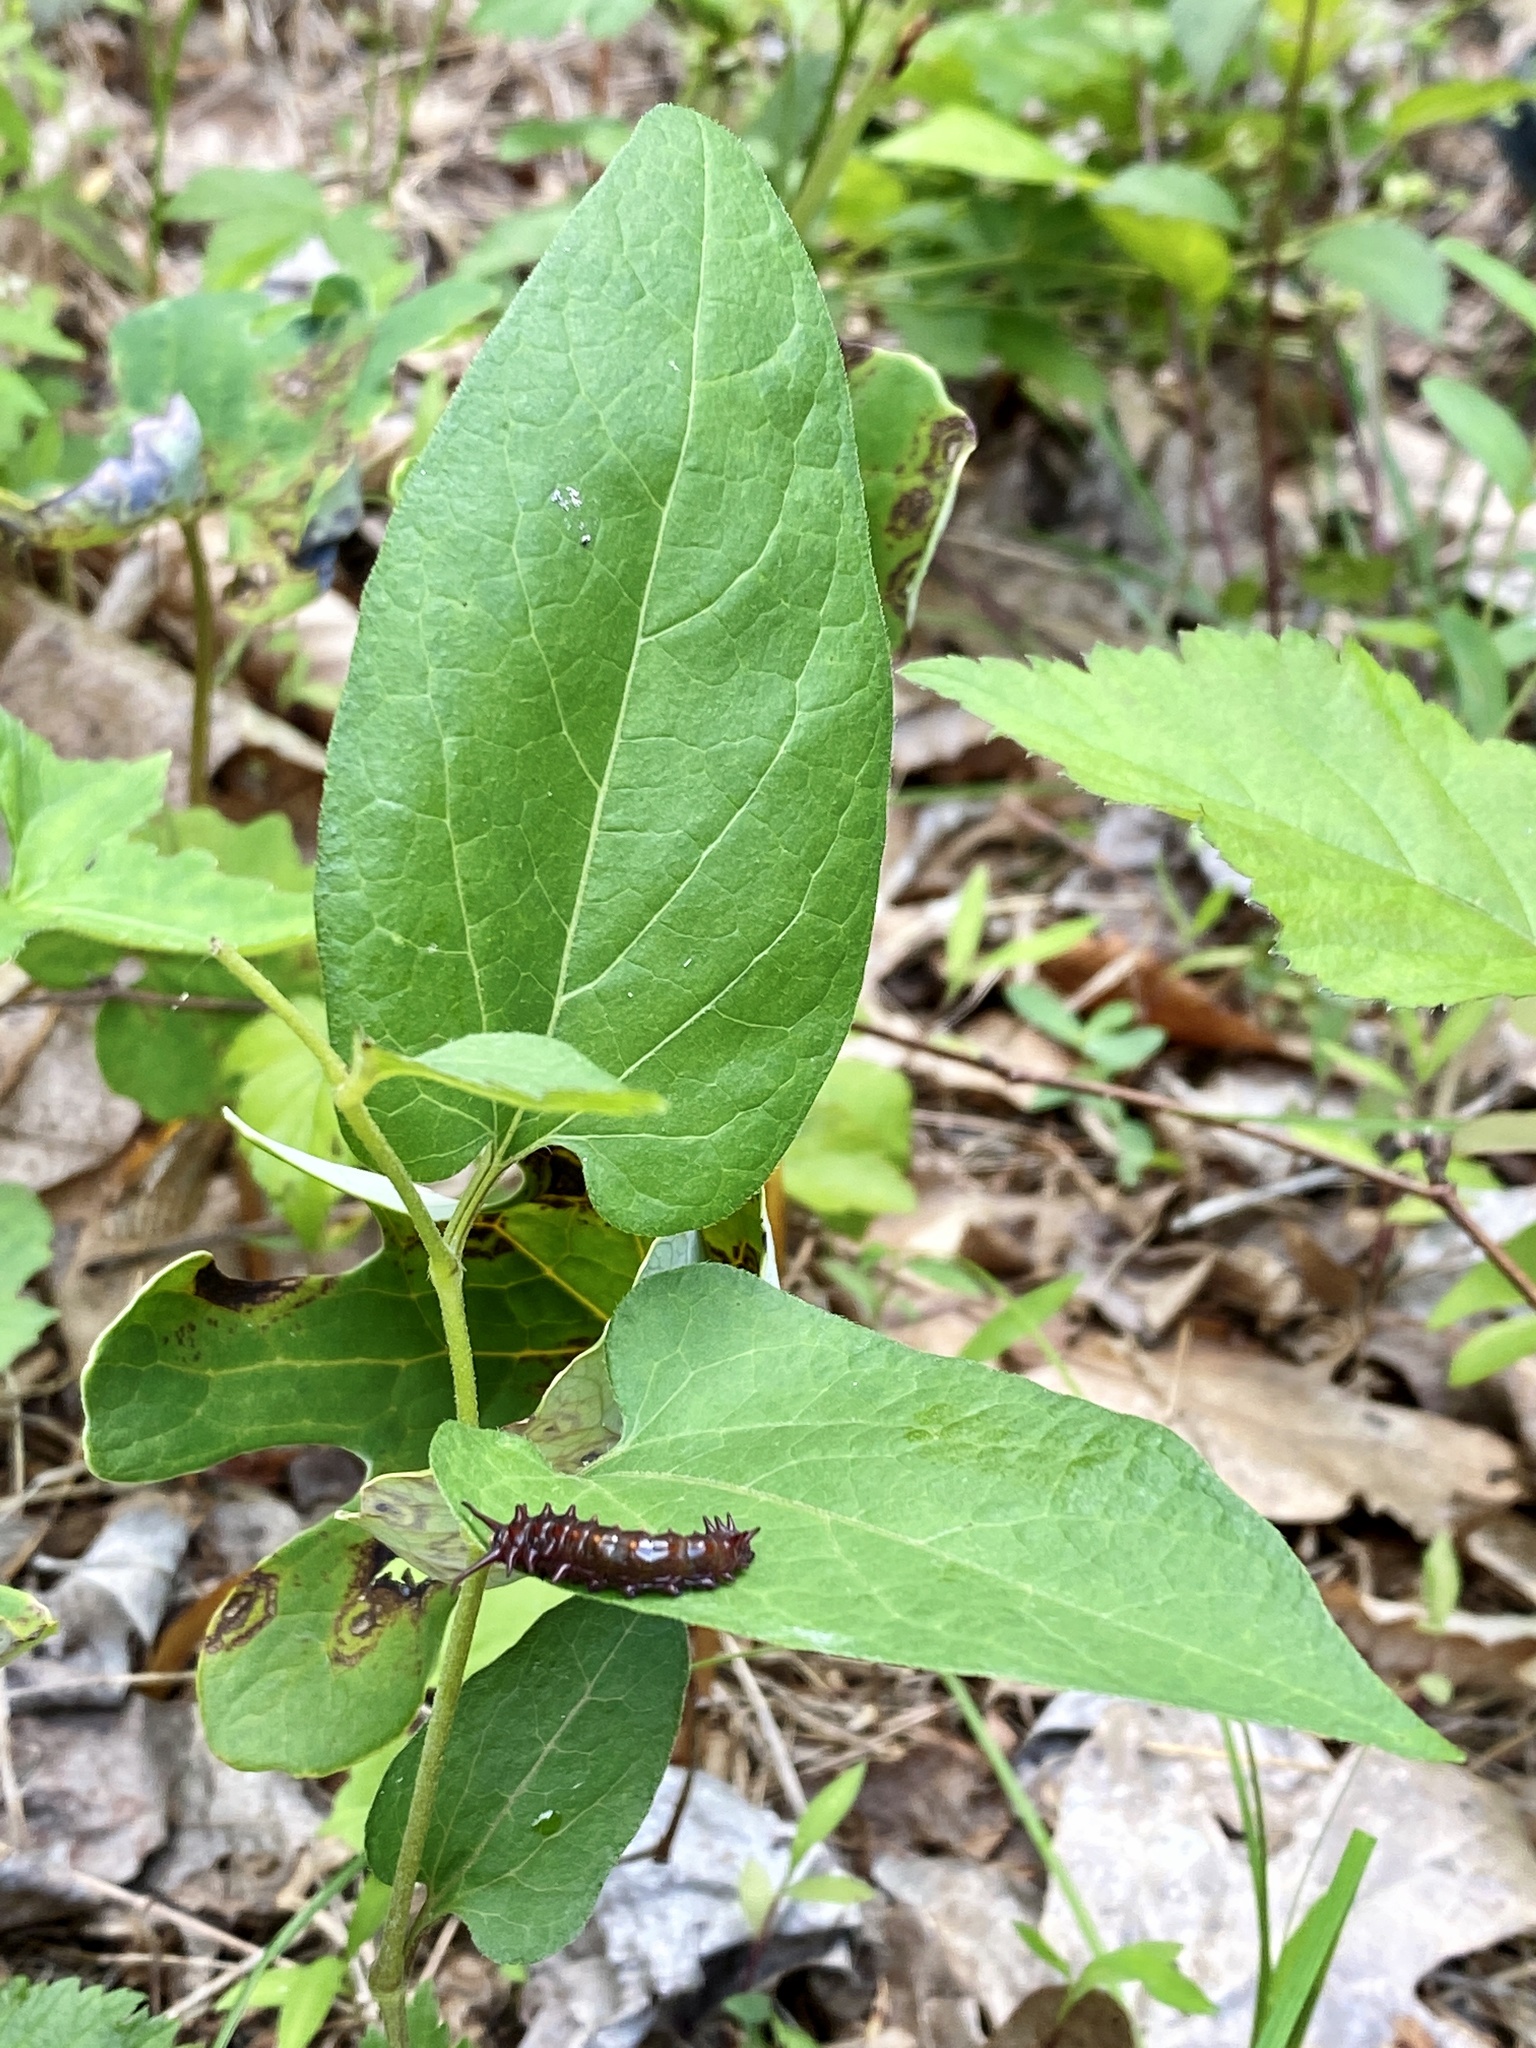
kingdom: Plantae
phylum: Tracheophyta
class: Magnoliopsida
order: Piperales
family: Aristolochiaceae
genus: Endodeca
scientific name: Endodeca serpentaria
